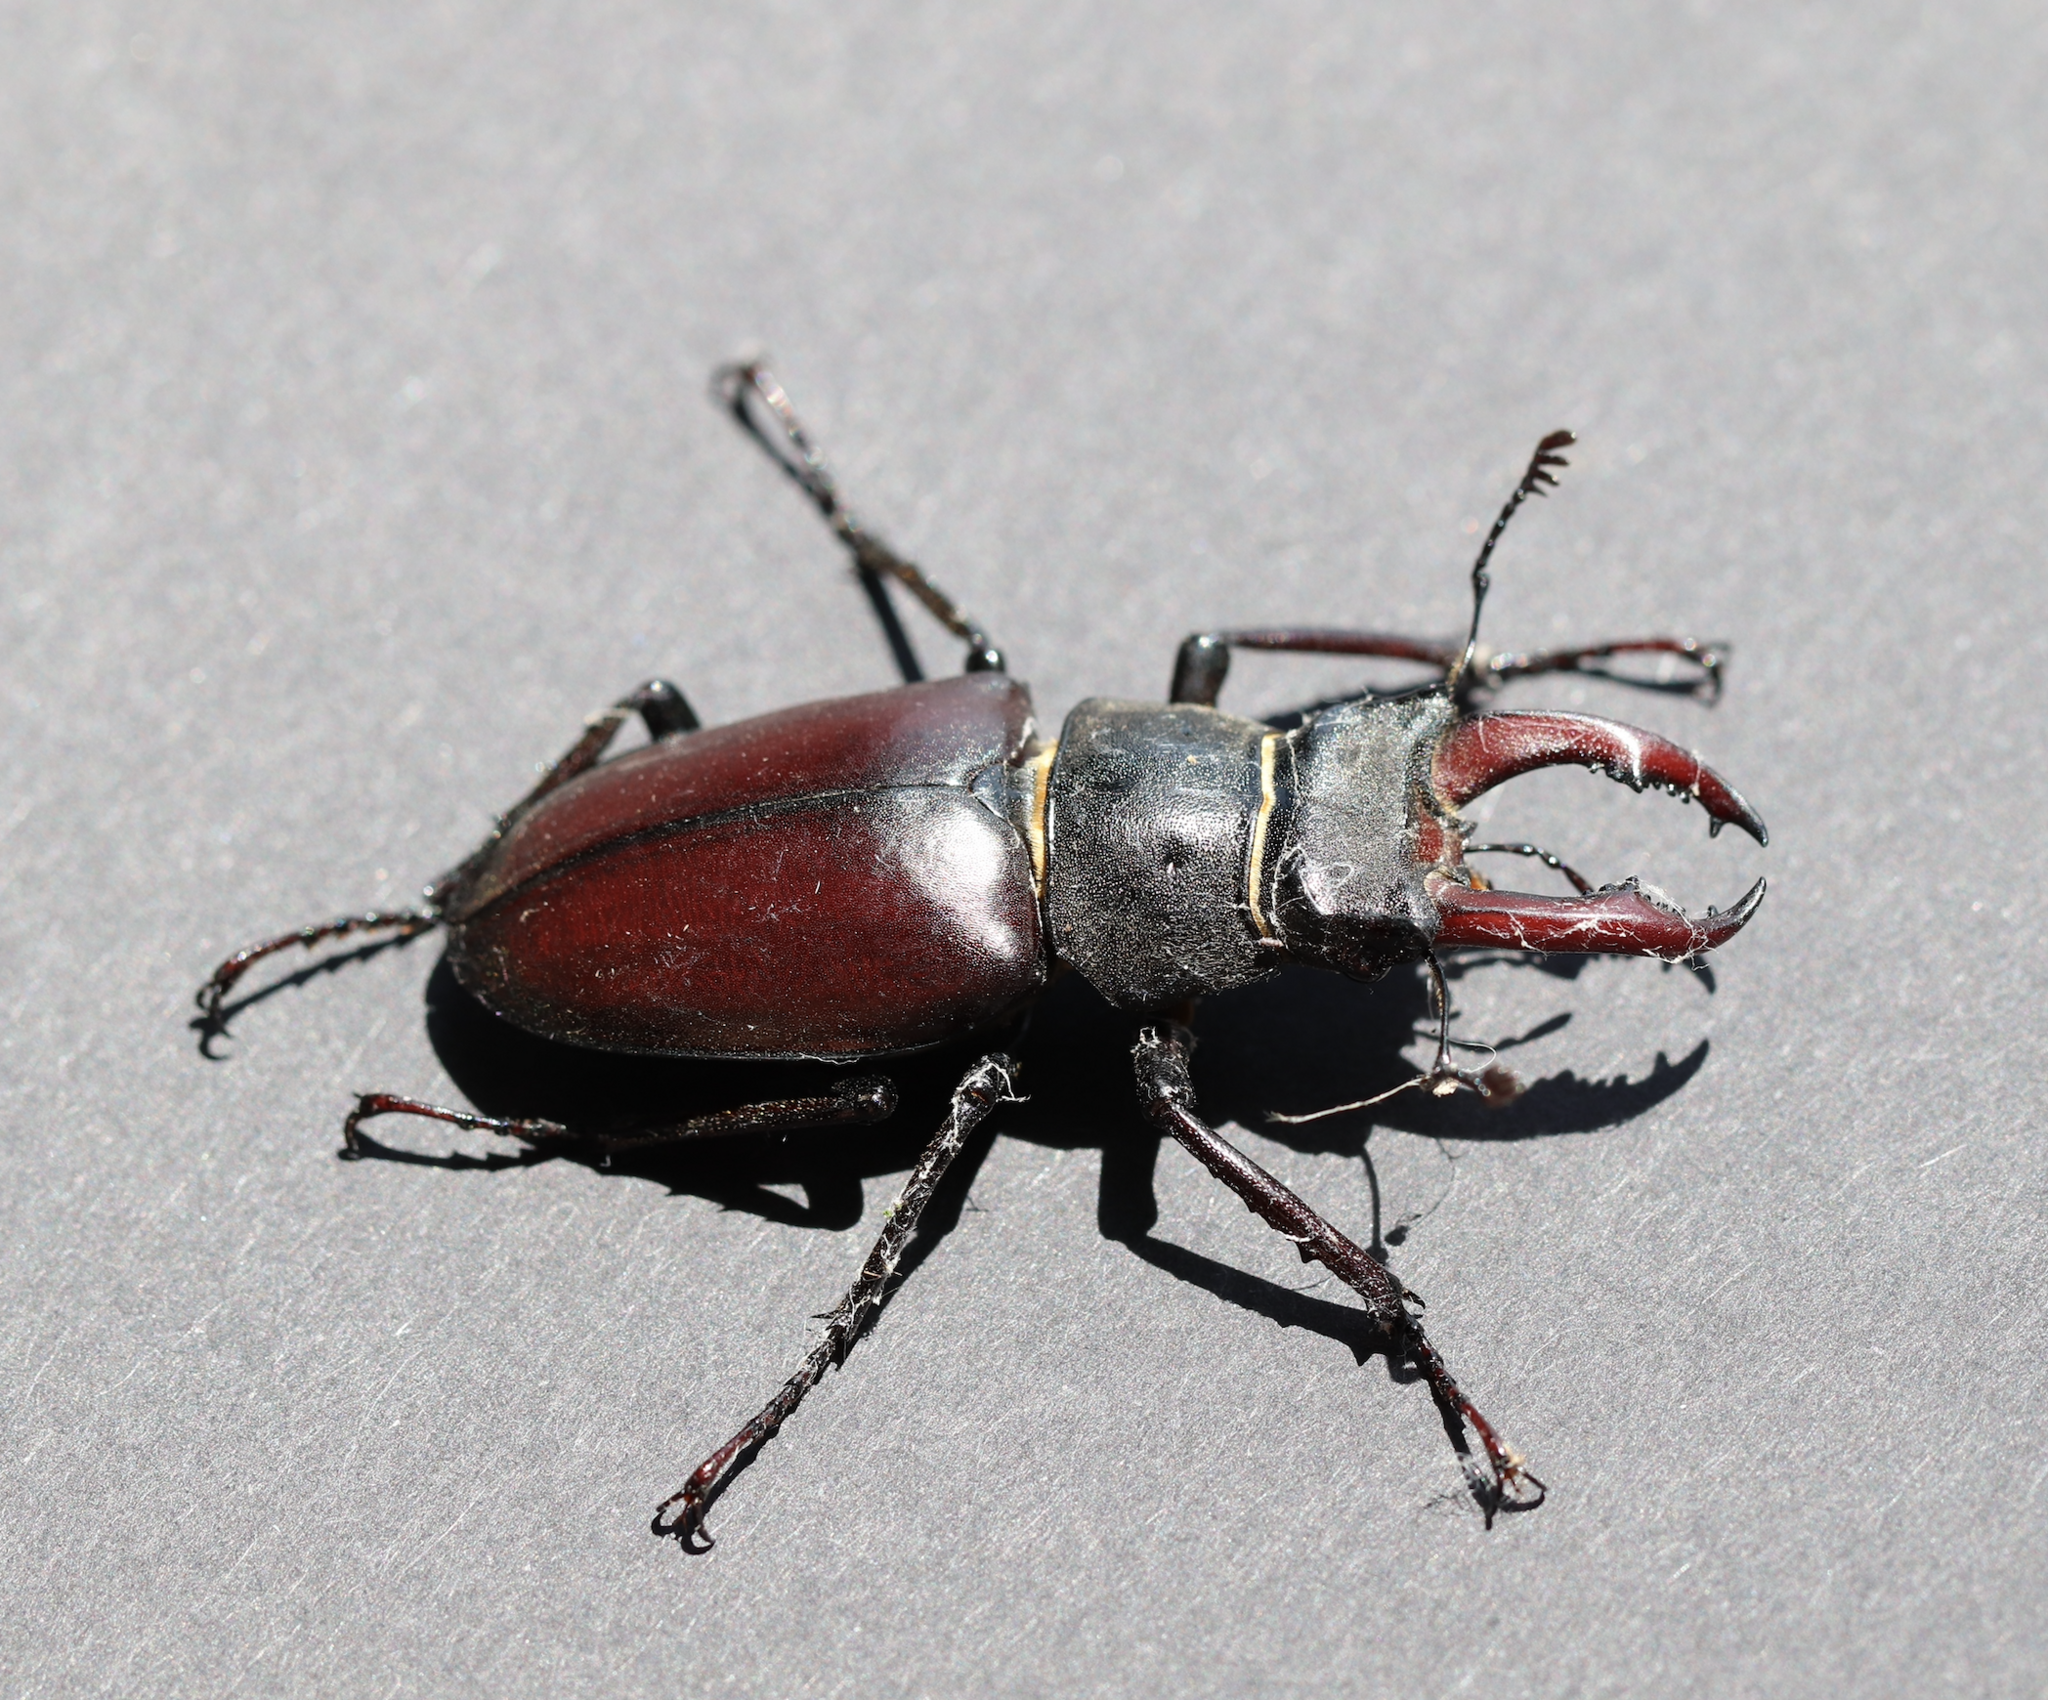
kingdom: Animalia
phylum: Arthropoda
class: Insecta
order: Coleoptera
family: Lucanidae
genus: Lucanus
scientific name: Lucanus cervus
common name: Stag beetle
